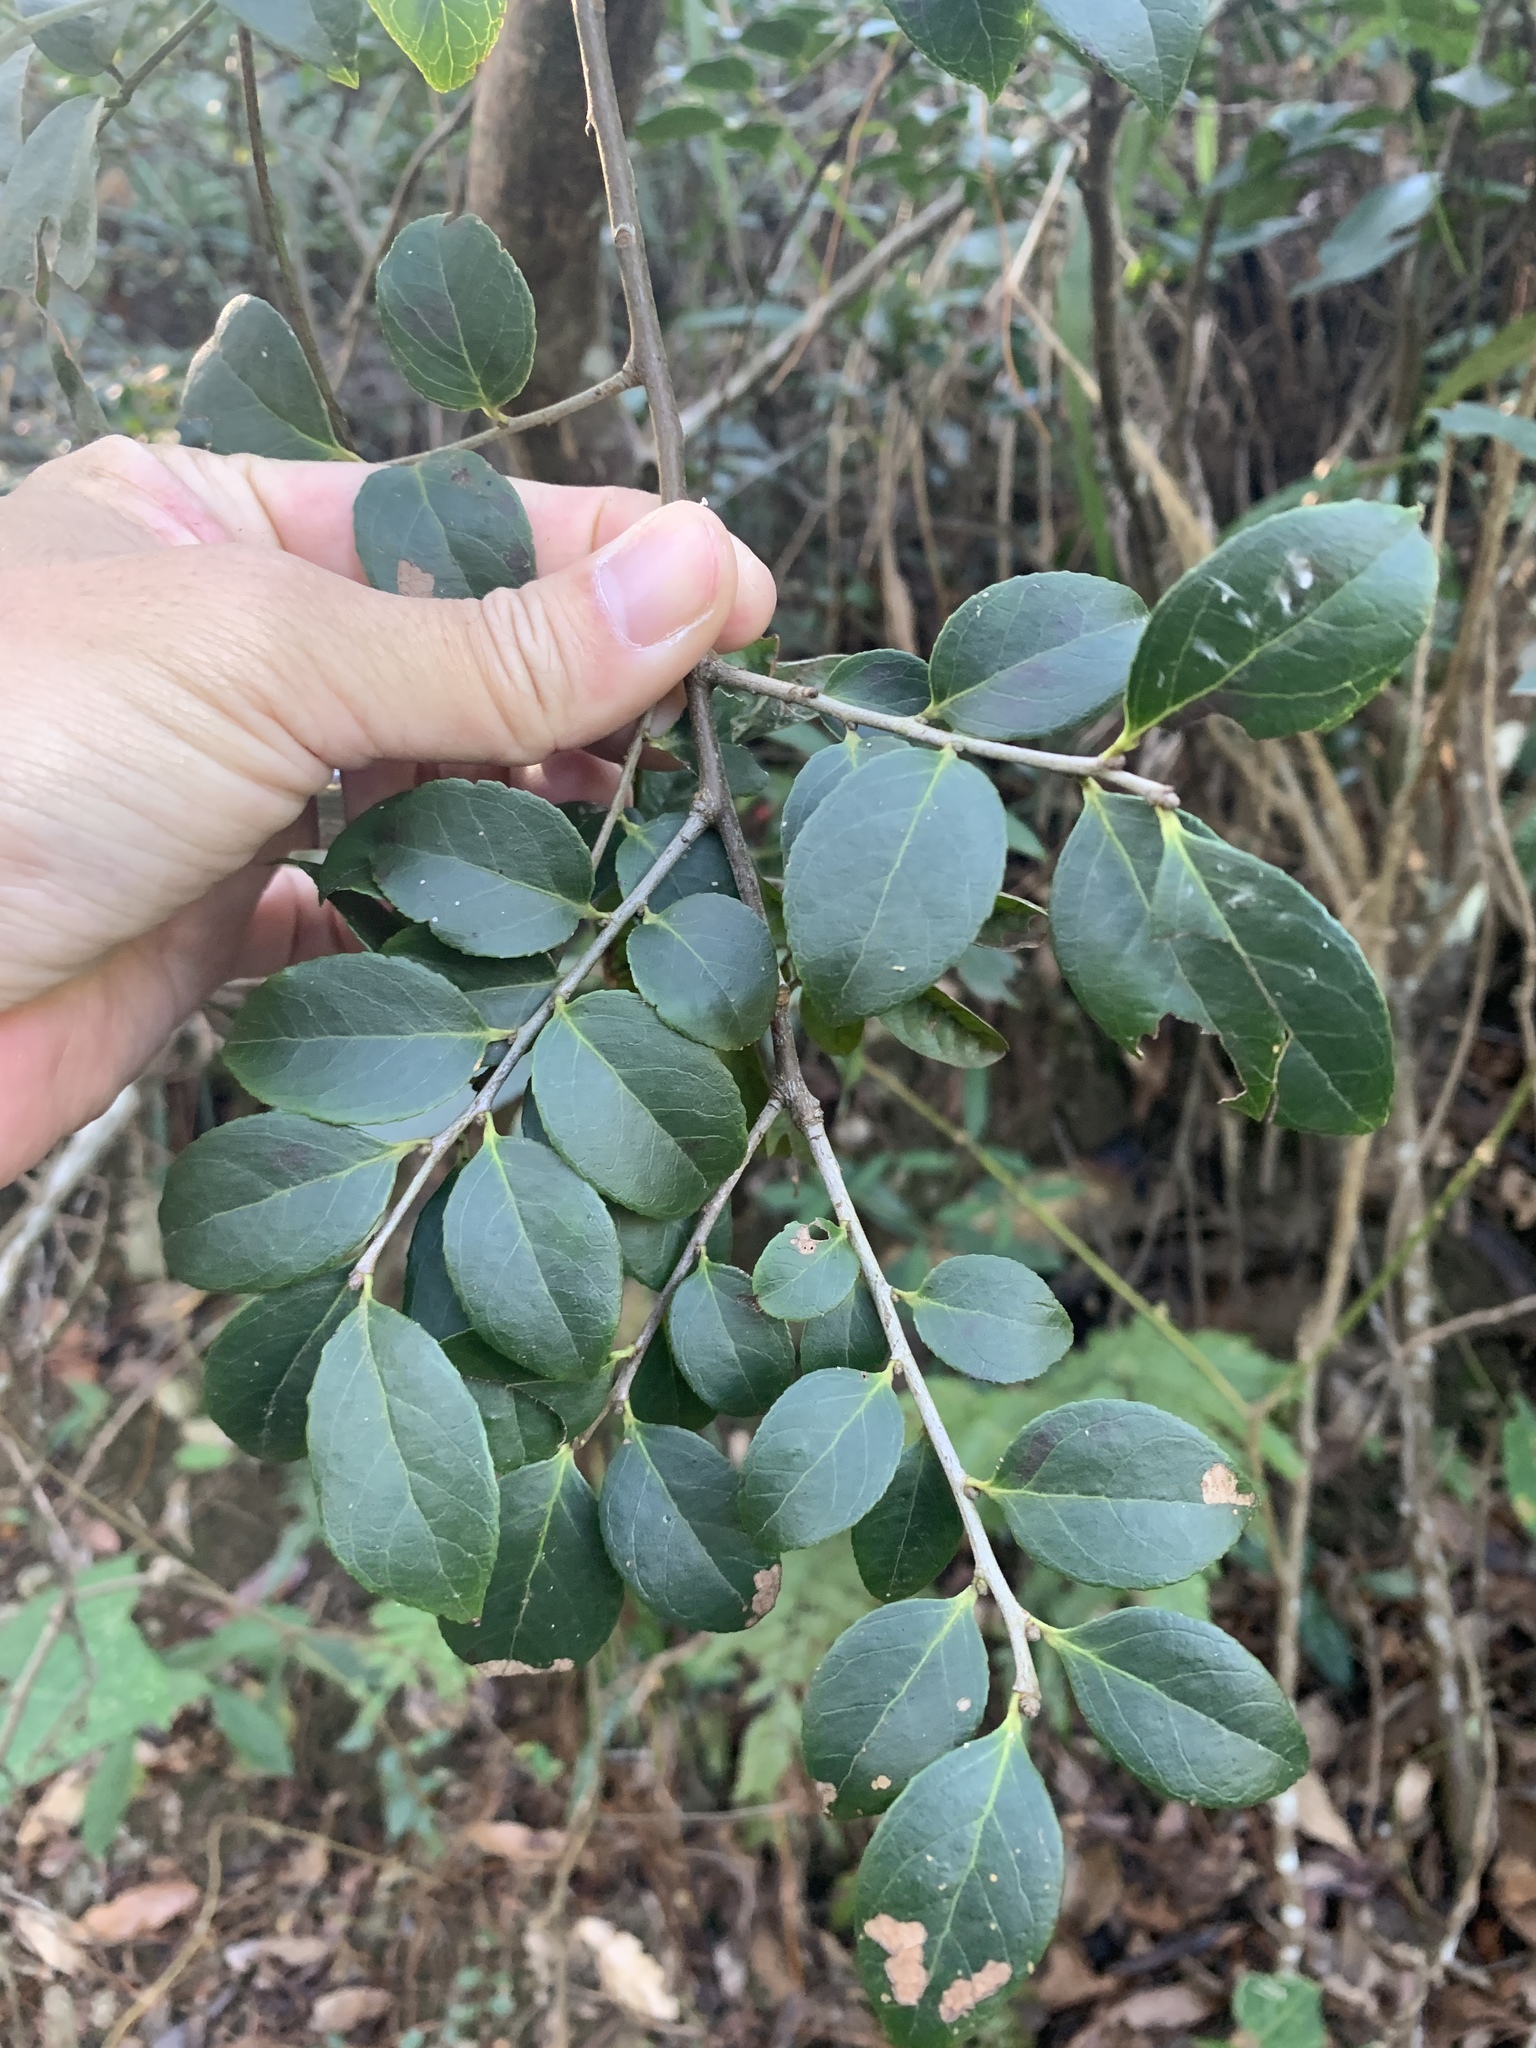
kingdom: Plantae
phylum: Tracheophyta
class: Magnoliopsida
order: Ericales
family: Ericaceae
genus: Vaccinium
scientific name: Vaccinium bracteatum
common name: Sea bilberry
